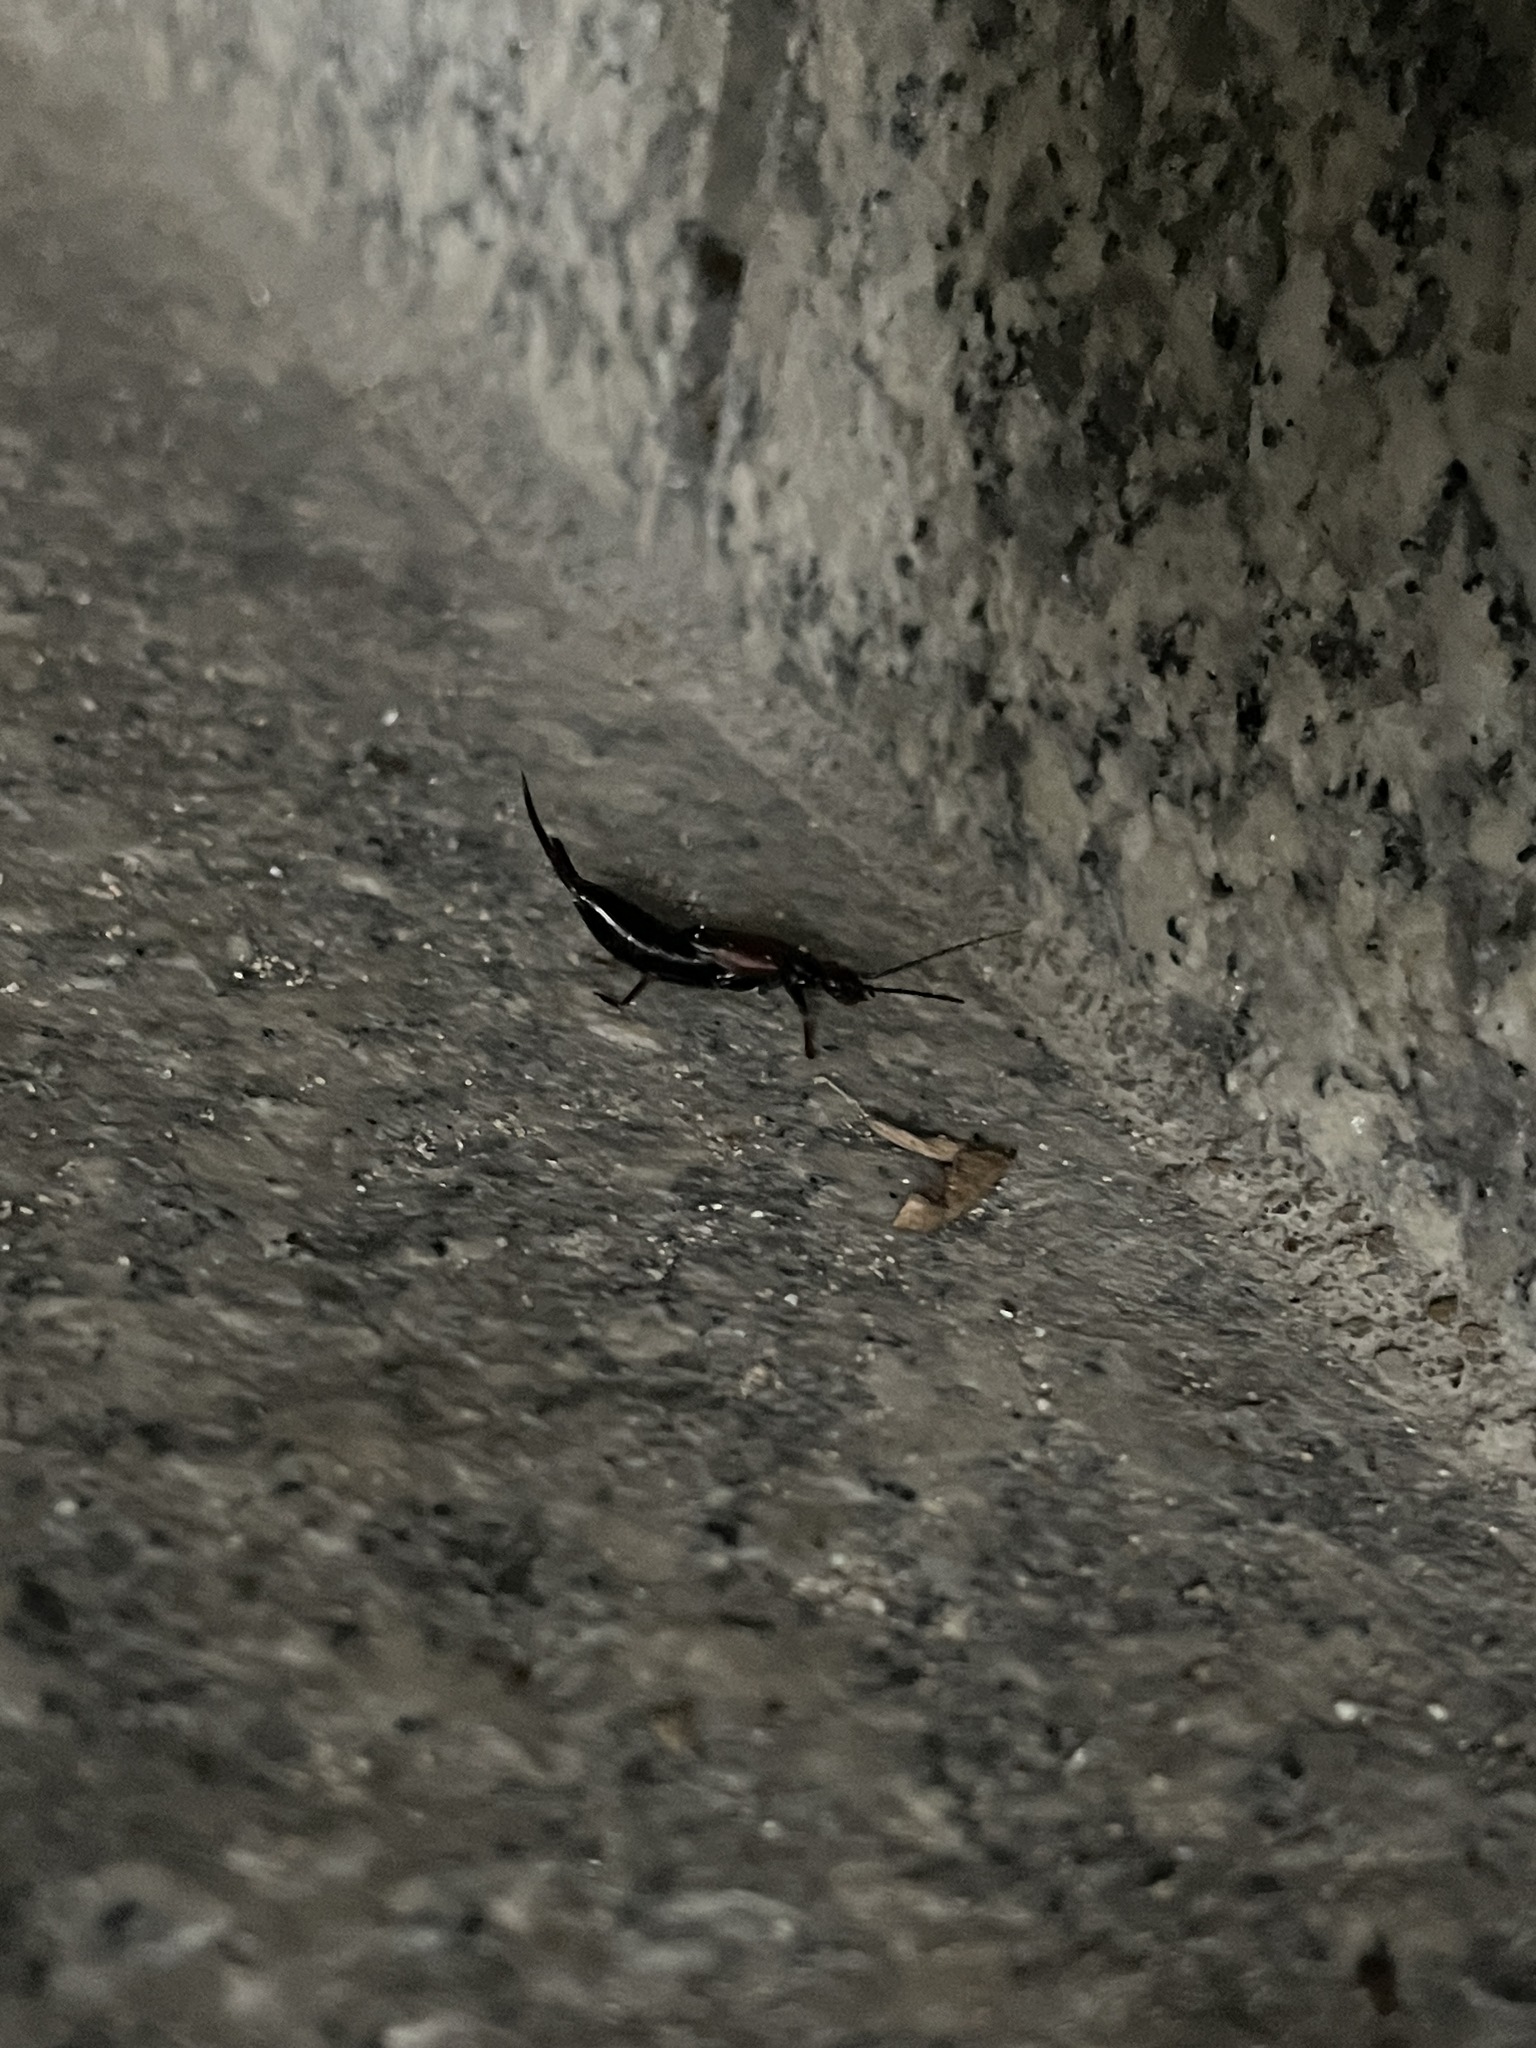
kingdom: Animalia
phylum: Arthropoda
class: Insecta
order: Dermaptera
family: Forficulidae
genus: Timomenus
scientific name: Timomenus komarovi
